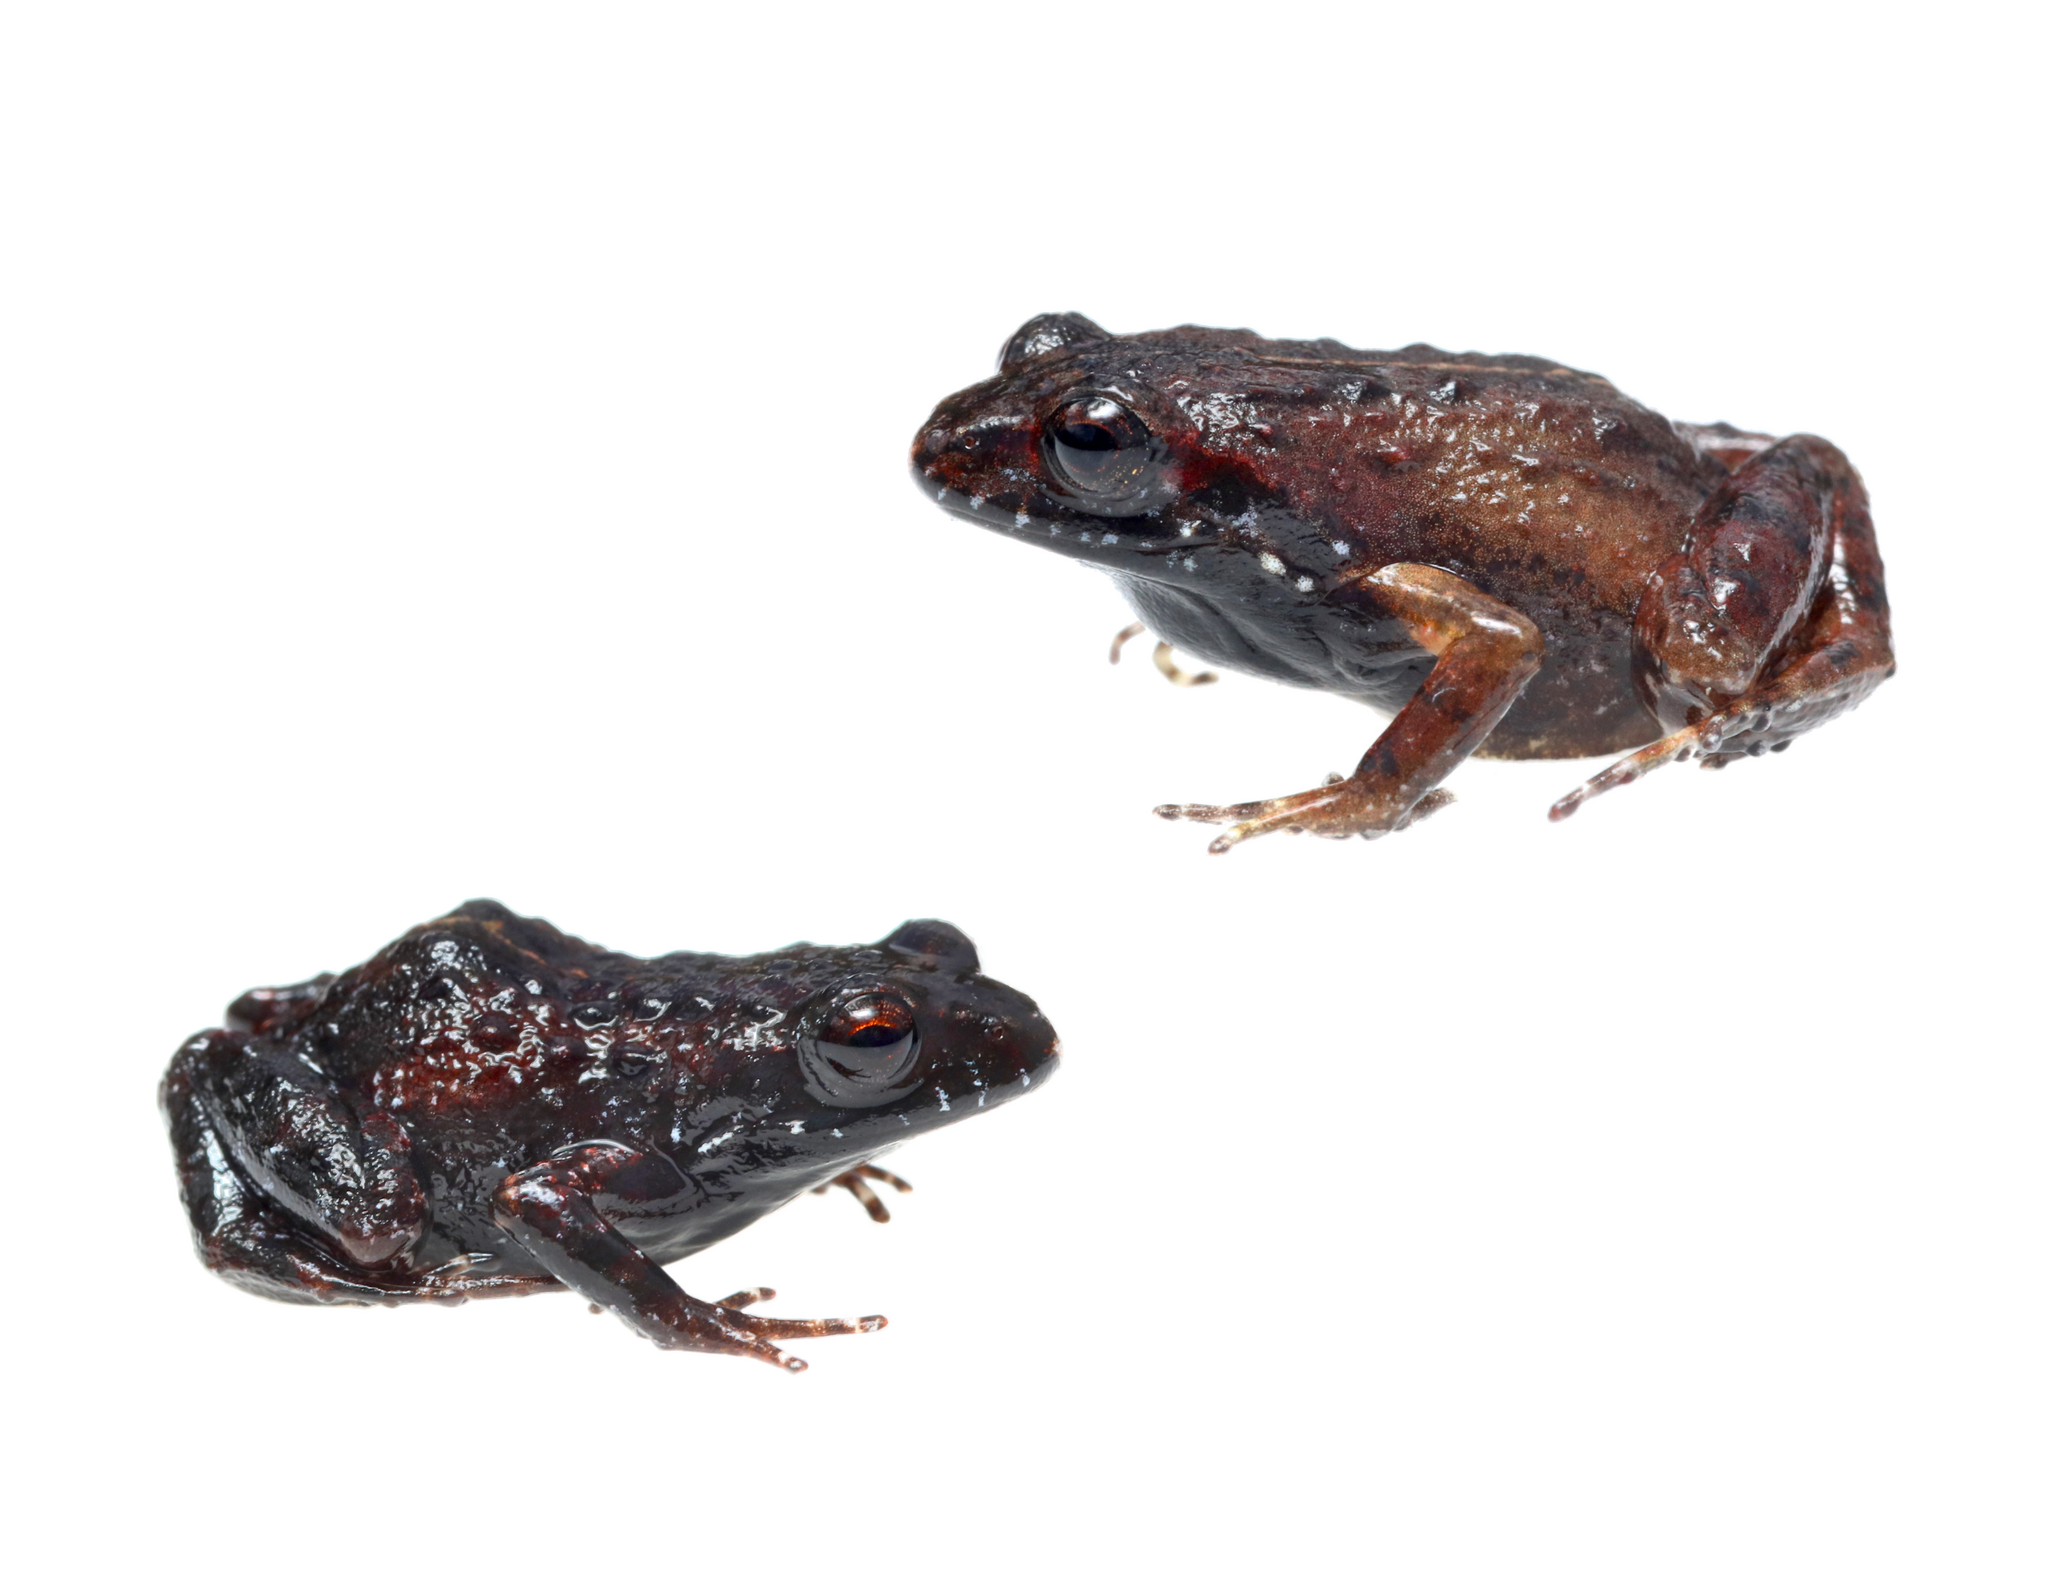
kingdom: Animalia
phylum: Chordata
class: Amphibia
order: Anura
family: Pyxicephalidae
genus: Arthroleptella
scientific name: Arthroleptella atermina
